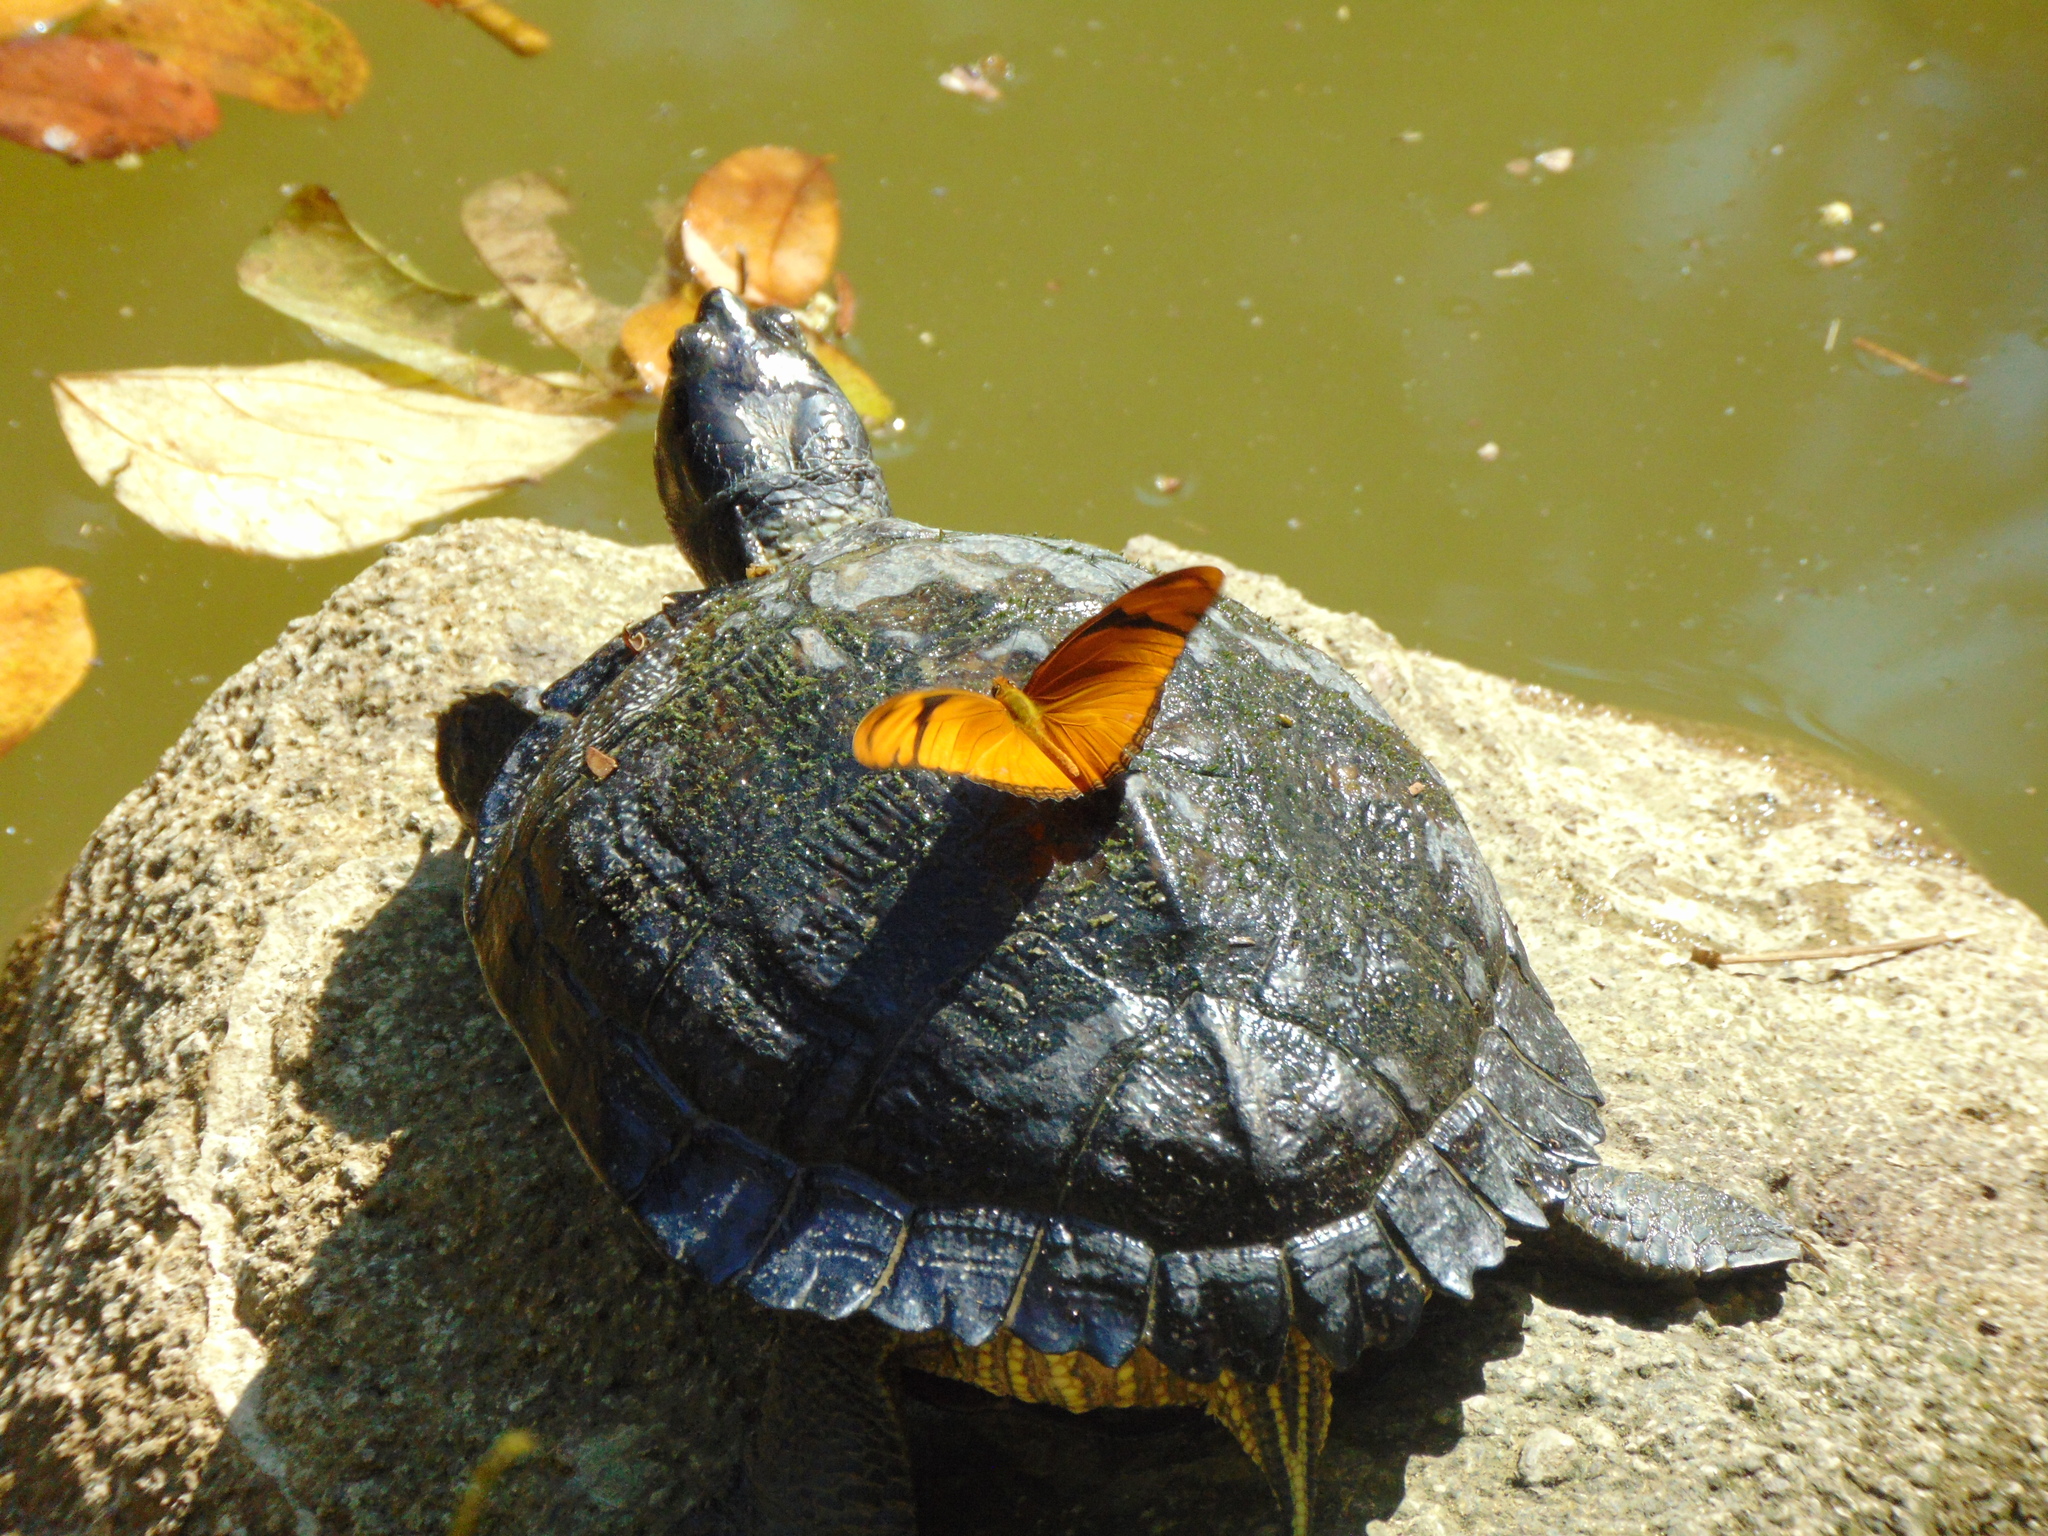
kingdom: Animalia
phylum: Arthropoda
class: Insecta
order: Lepidoptera
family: Nymphalidae
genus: Dryas
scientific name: Dryas iulia
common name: Flambeau
